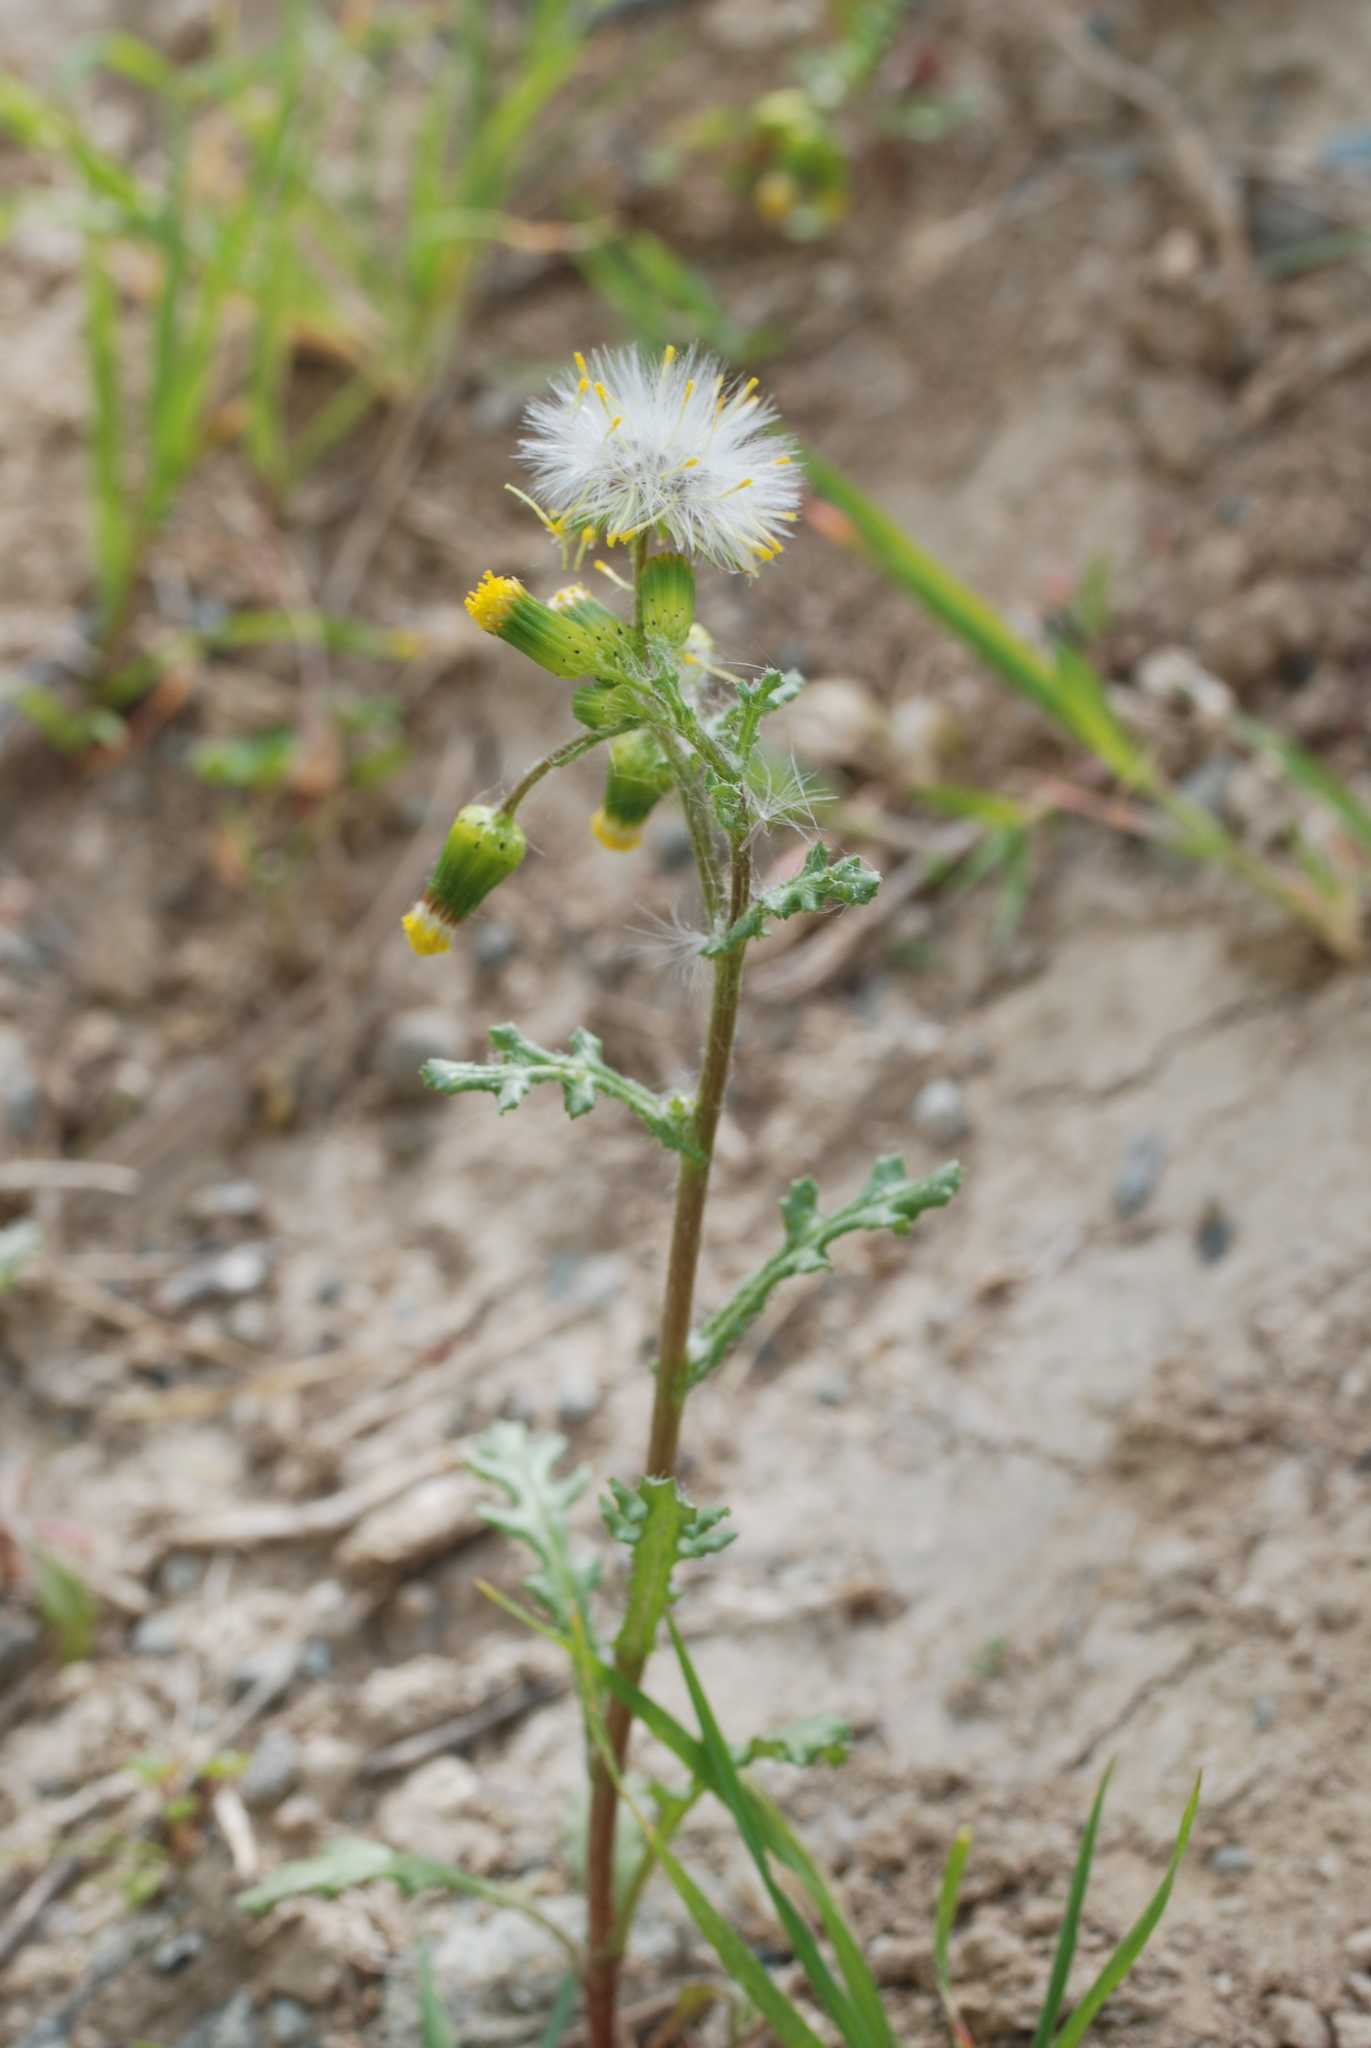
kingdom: Plantae
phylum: Tracheophyta
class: Magnoliopsida
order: Asterales
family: Asteraceae
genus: Senecio
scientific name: Senecio vulgaris
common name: Old-man-in-the-spring
